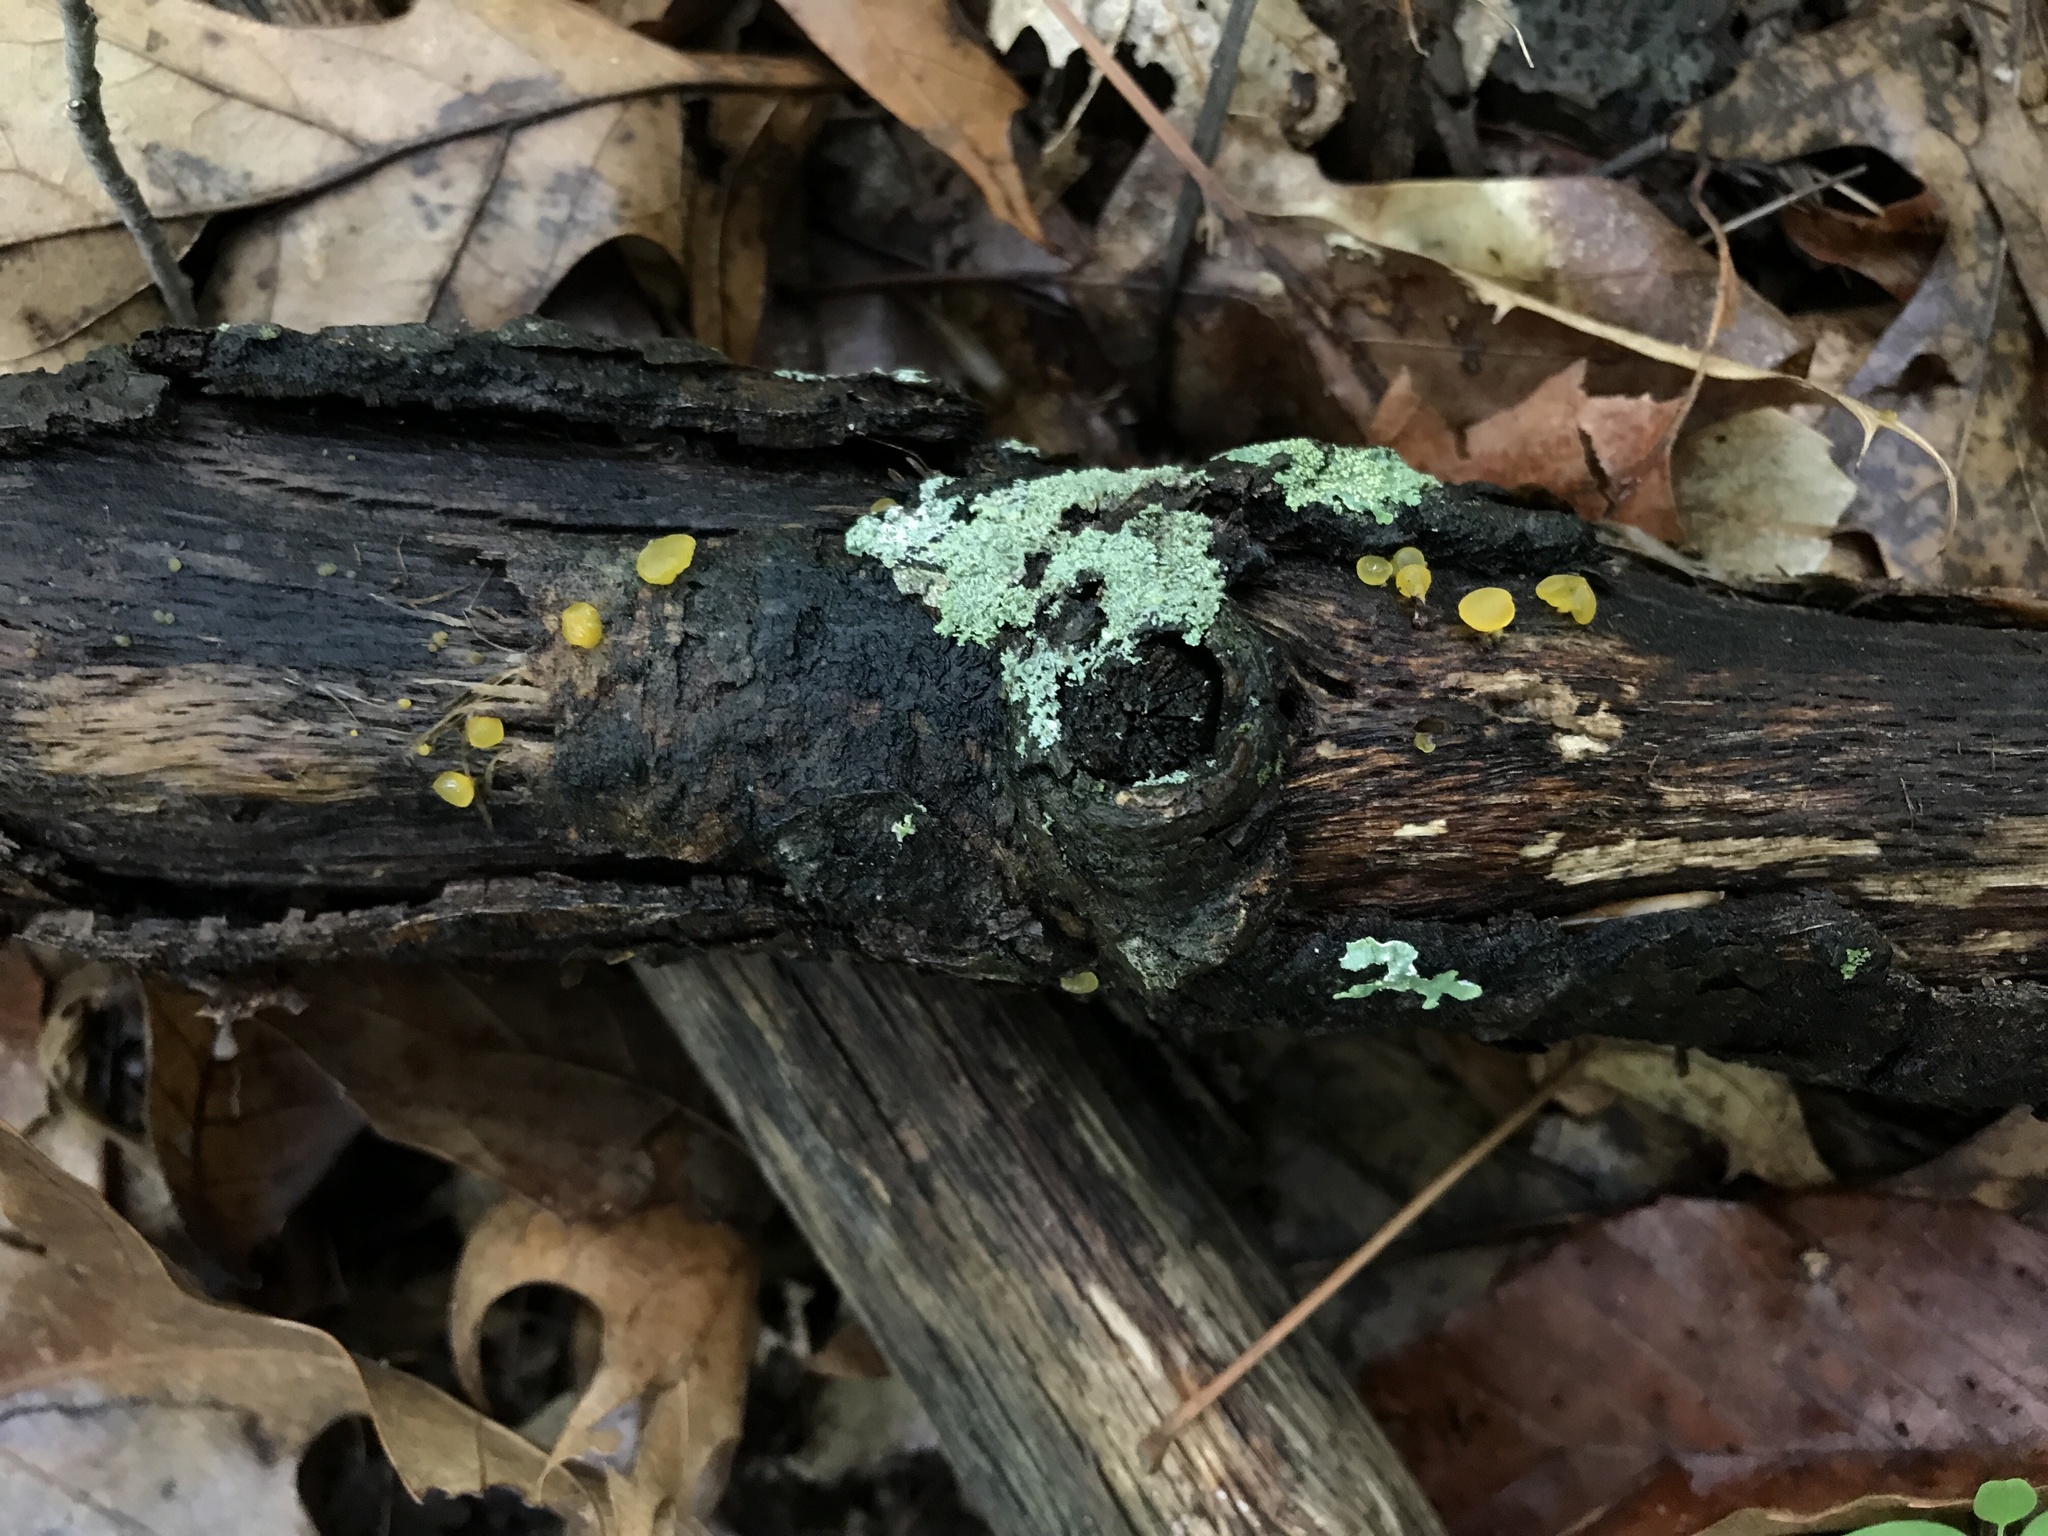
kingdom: Fungi
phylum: Basidiomycota
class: Dacrymycetes
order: Dacrymycetales
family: Dacrymycetaceae
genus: Dacrymyces
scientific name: Dacrymyces capitatus
